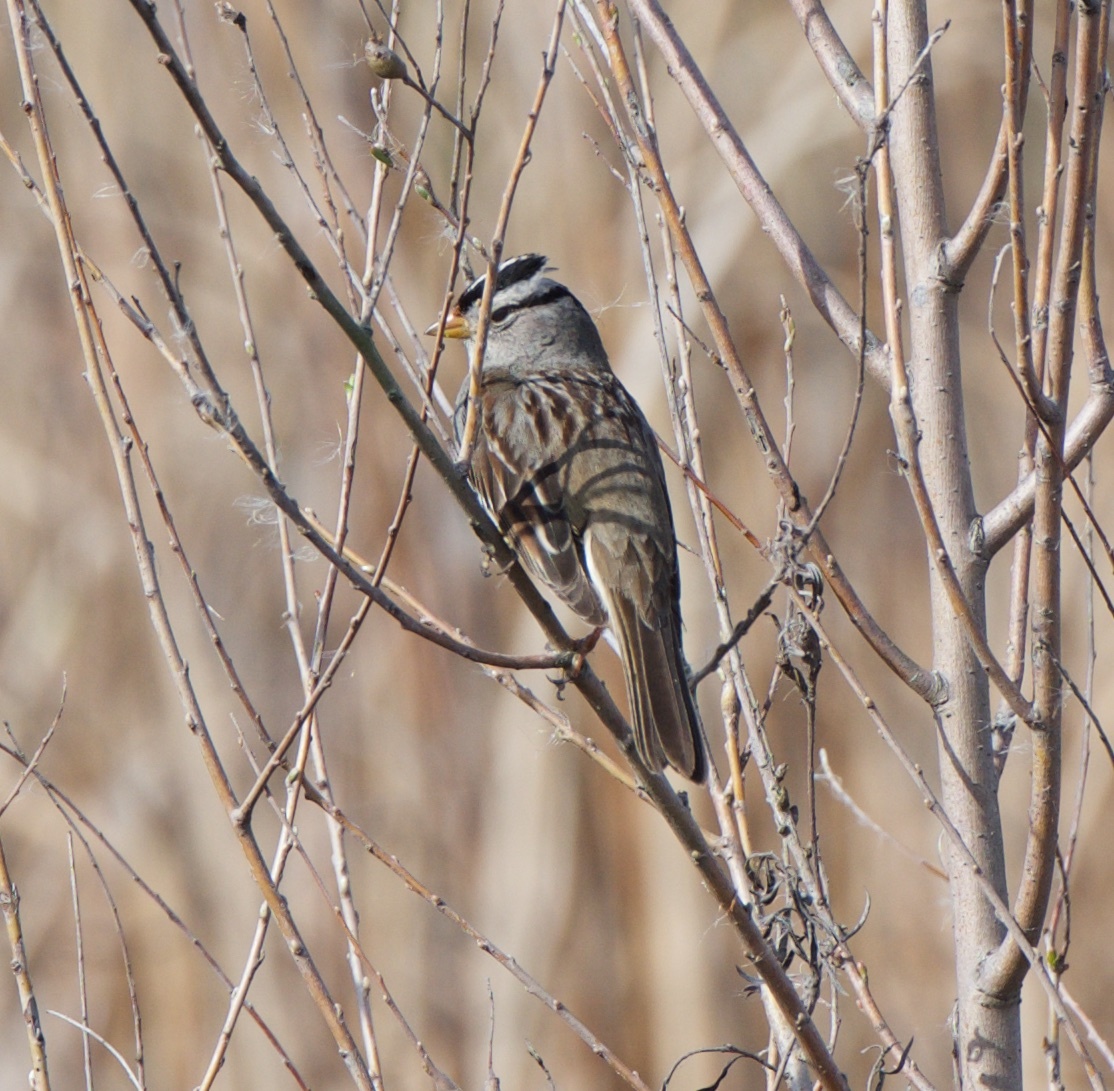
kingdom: Animalia
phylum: Chordata
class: Aves
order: Passeriformes
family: Passerellidae
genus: Zonotrichia
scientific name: Zonotrichia leucophrys
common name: White-crowned sparrow
